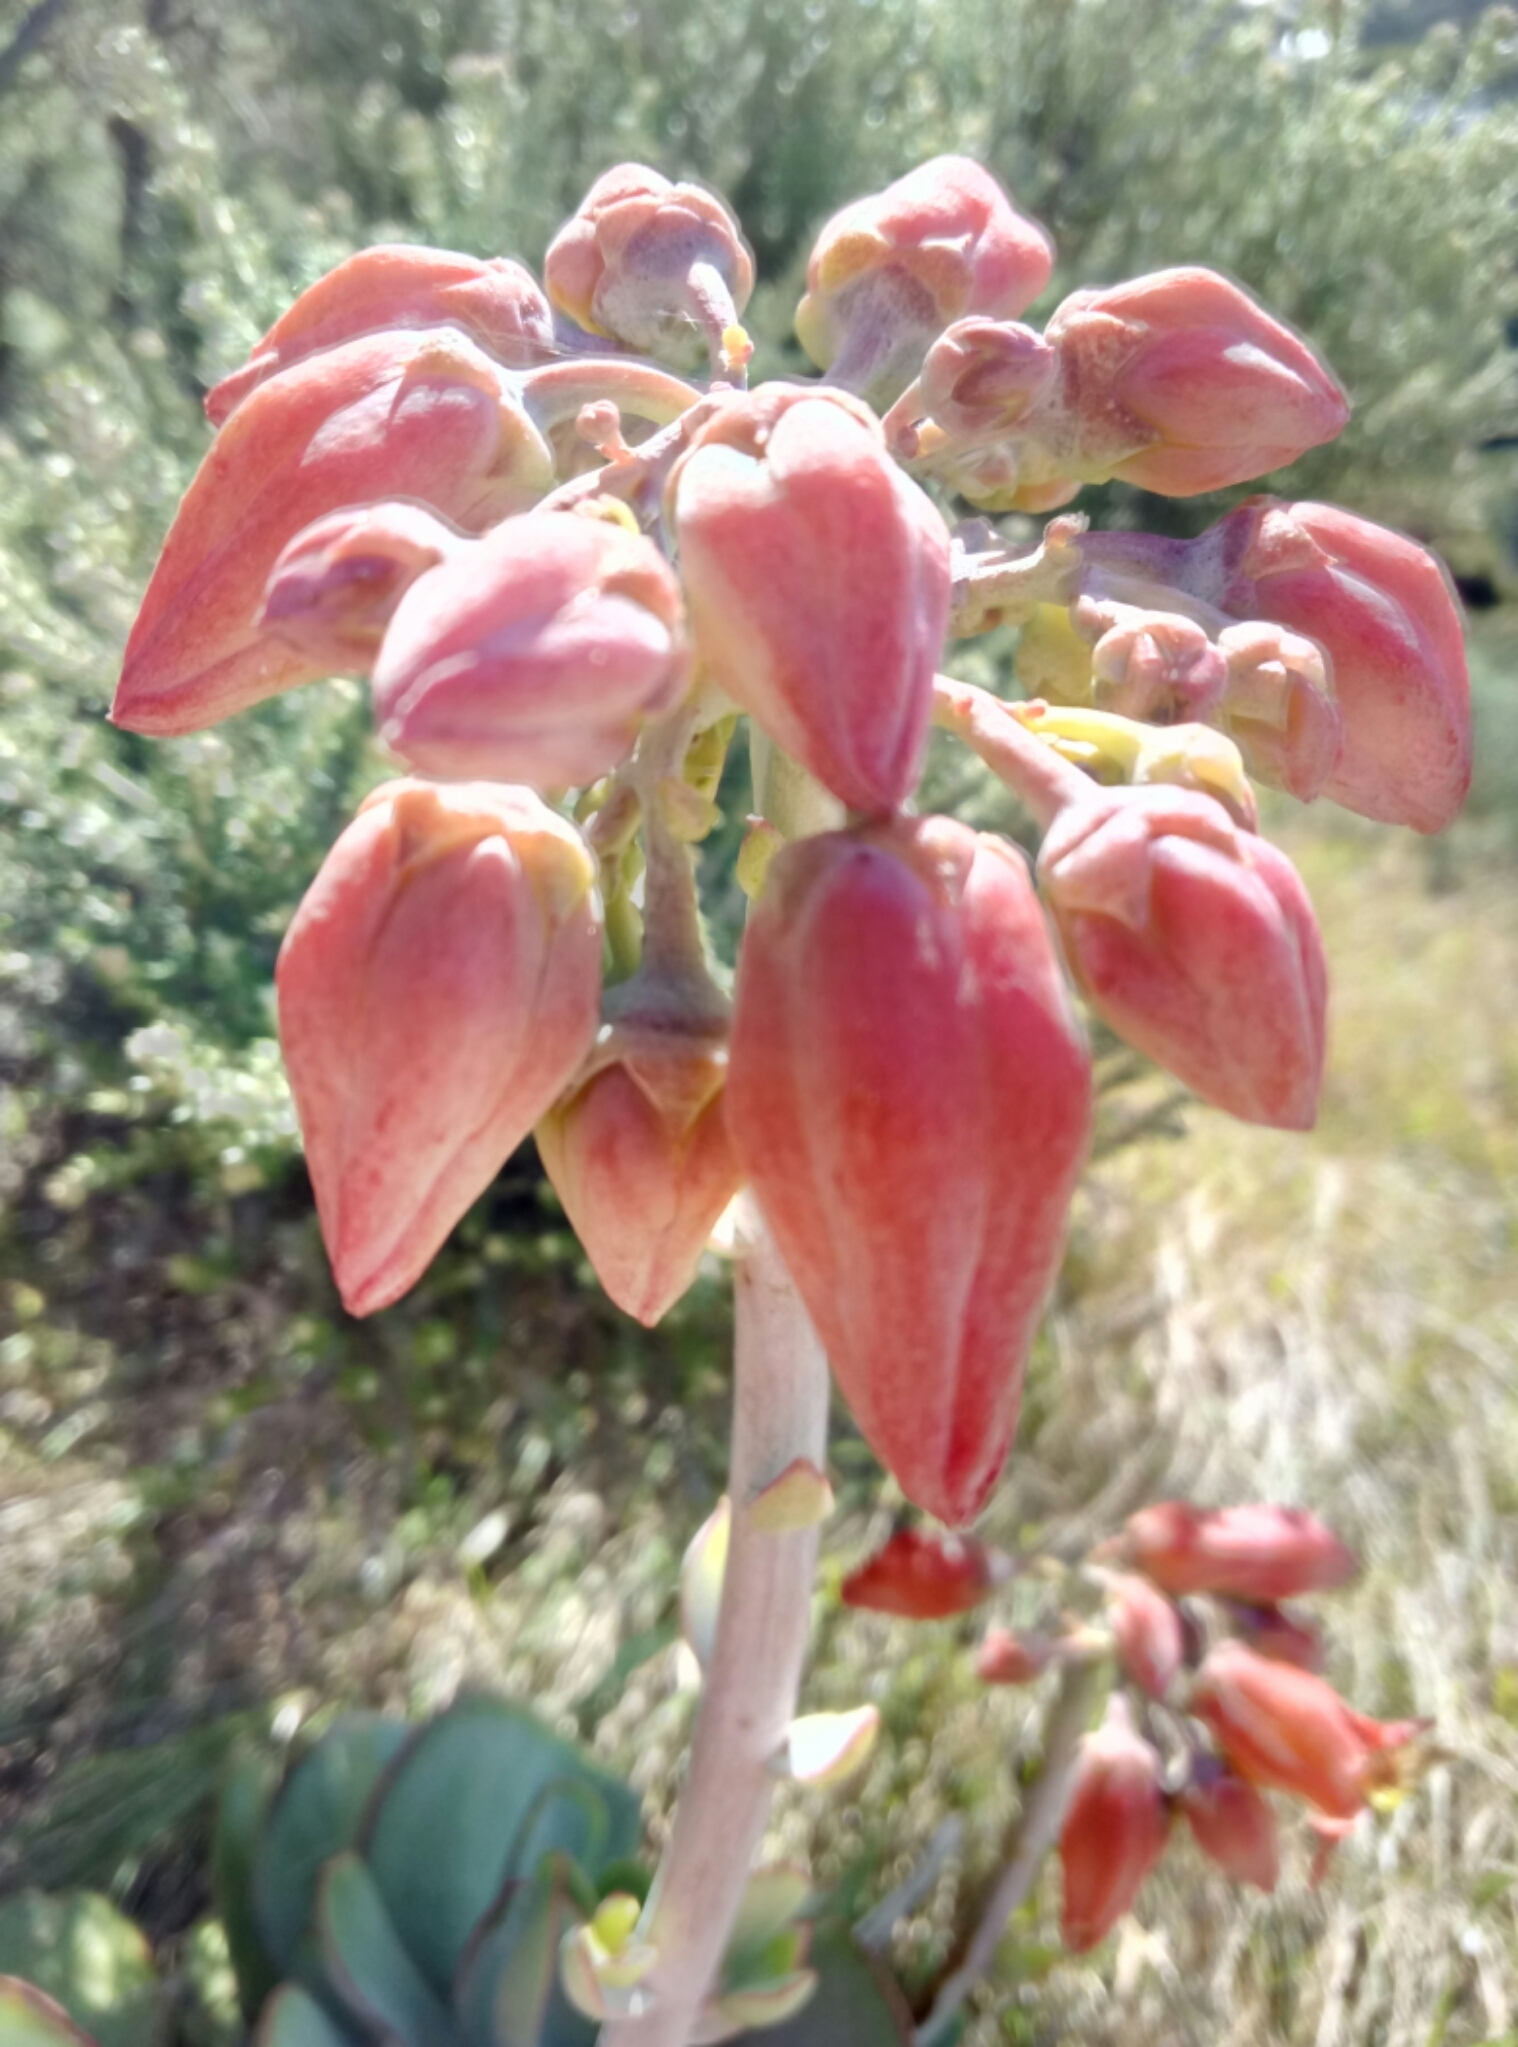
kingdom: Plantae
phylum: Tracheophyta
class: Magnoliopsida
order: Saxifragales
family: Crassulaceae
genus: Cotyledon
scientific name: Cotyledon orbiculata
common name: Pig's ear
